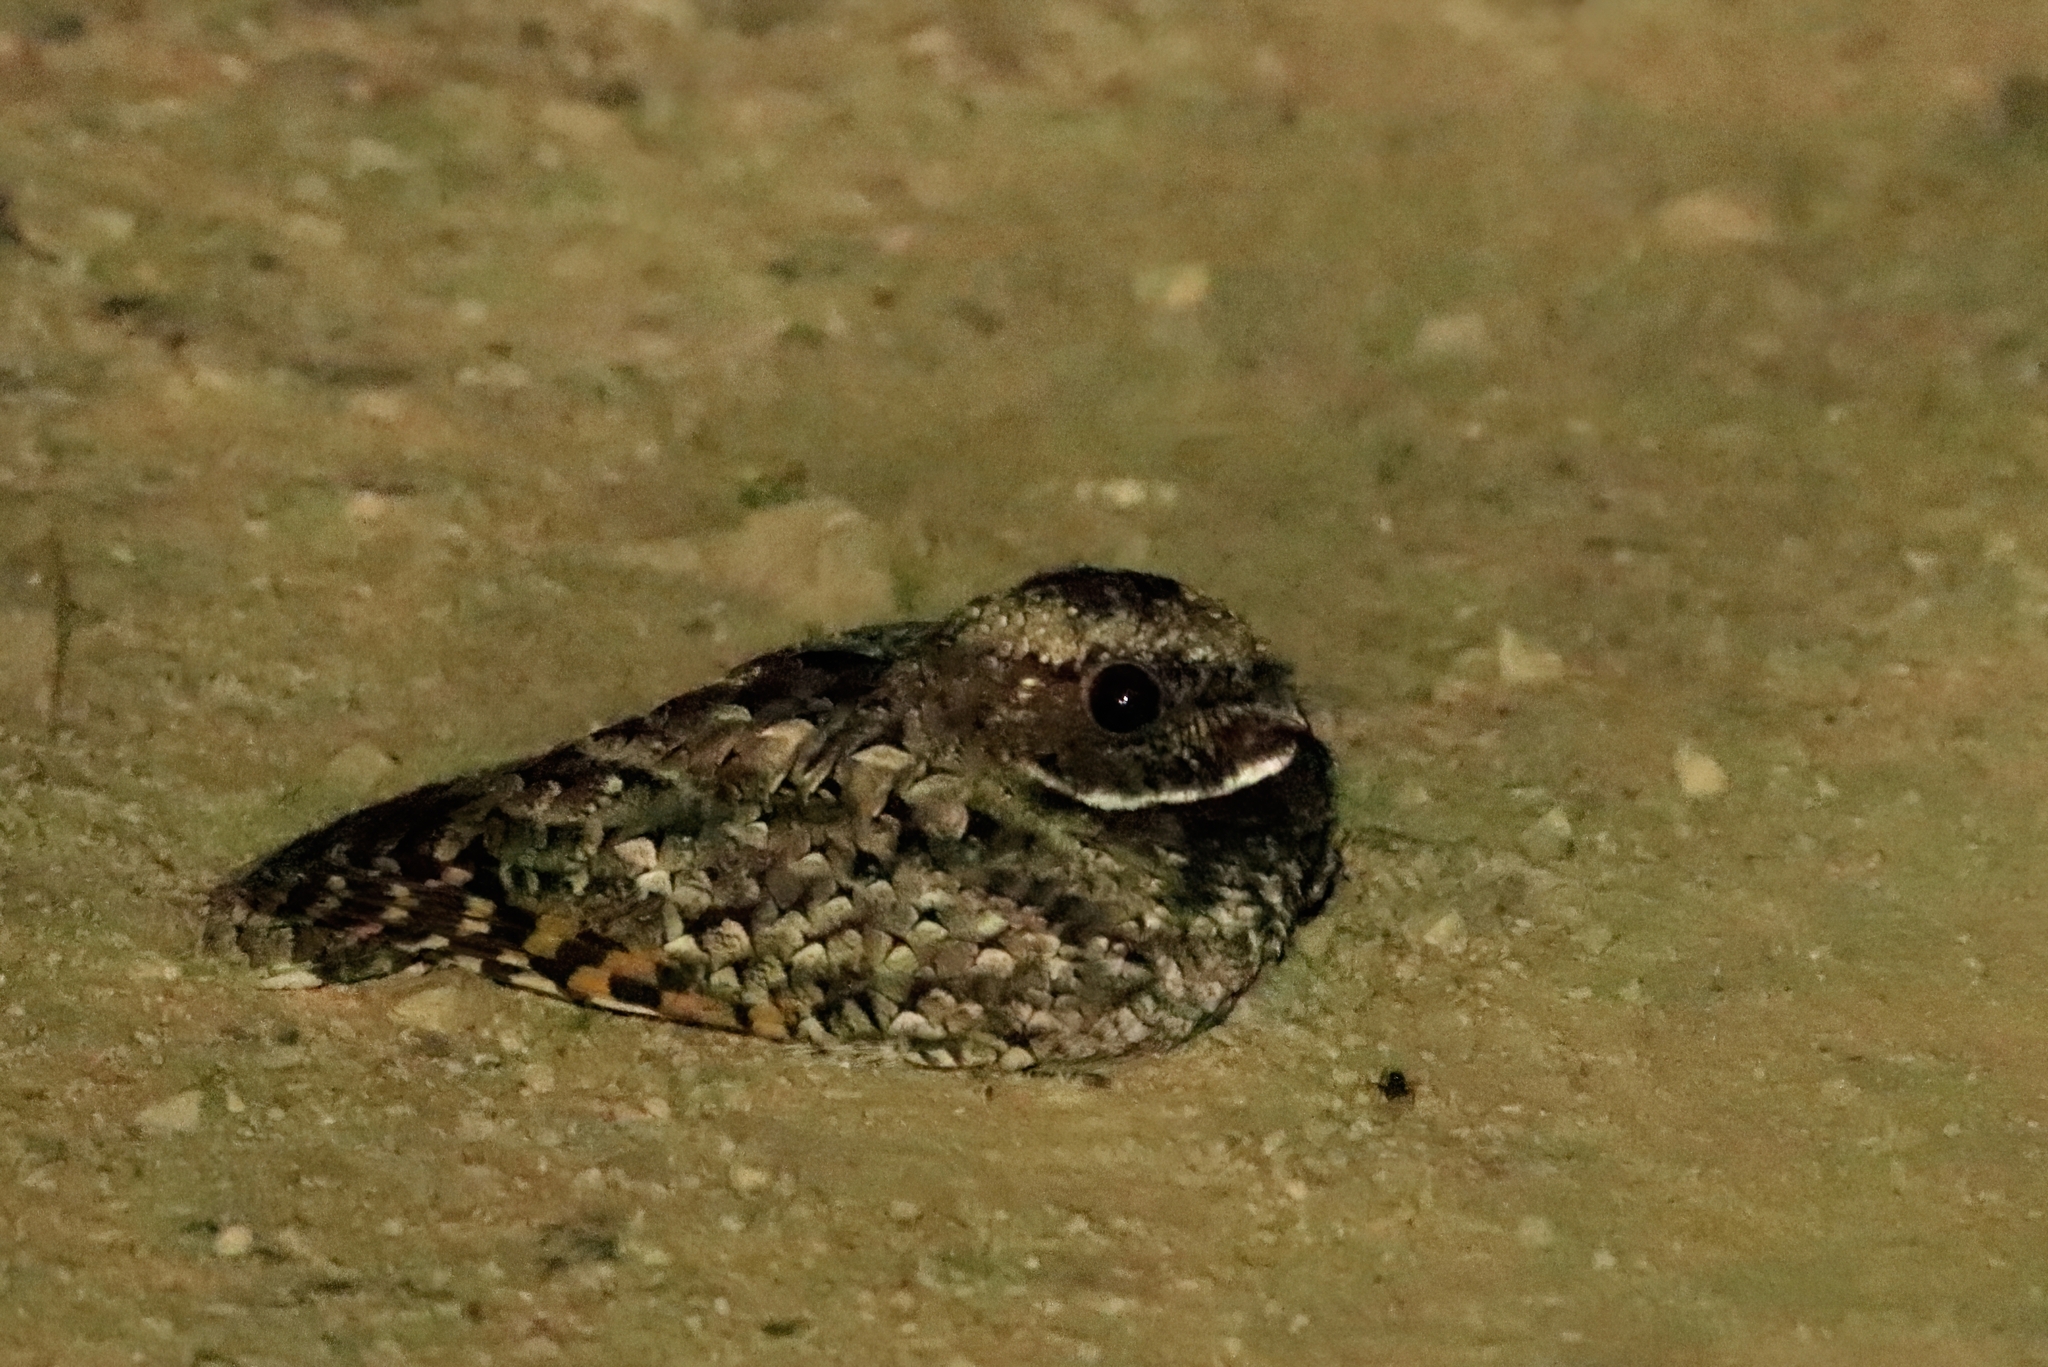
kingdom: Animalia
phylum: Chordata
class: Aves
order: Caprimulgiformes
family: Caprimulgidae
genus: Phalaenoptilus
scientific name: Phalaenoptilus nuttallii
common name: Common poorwill
